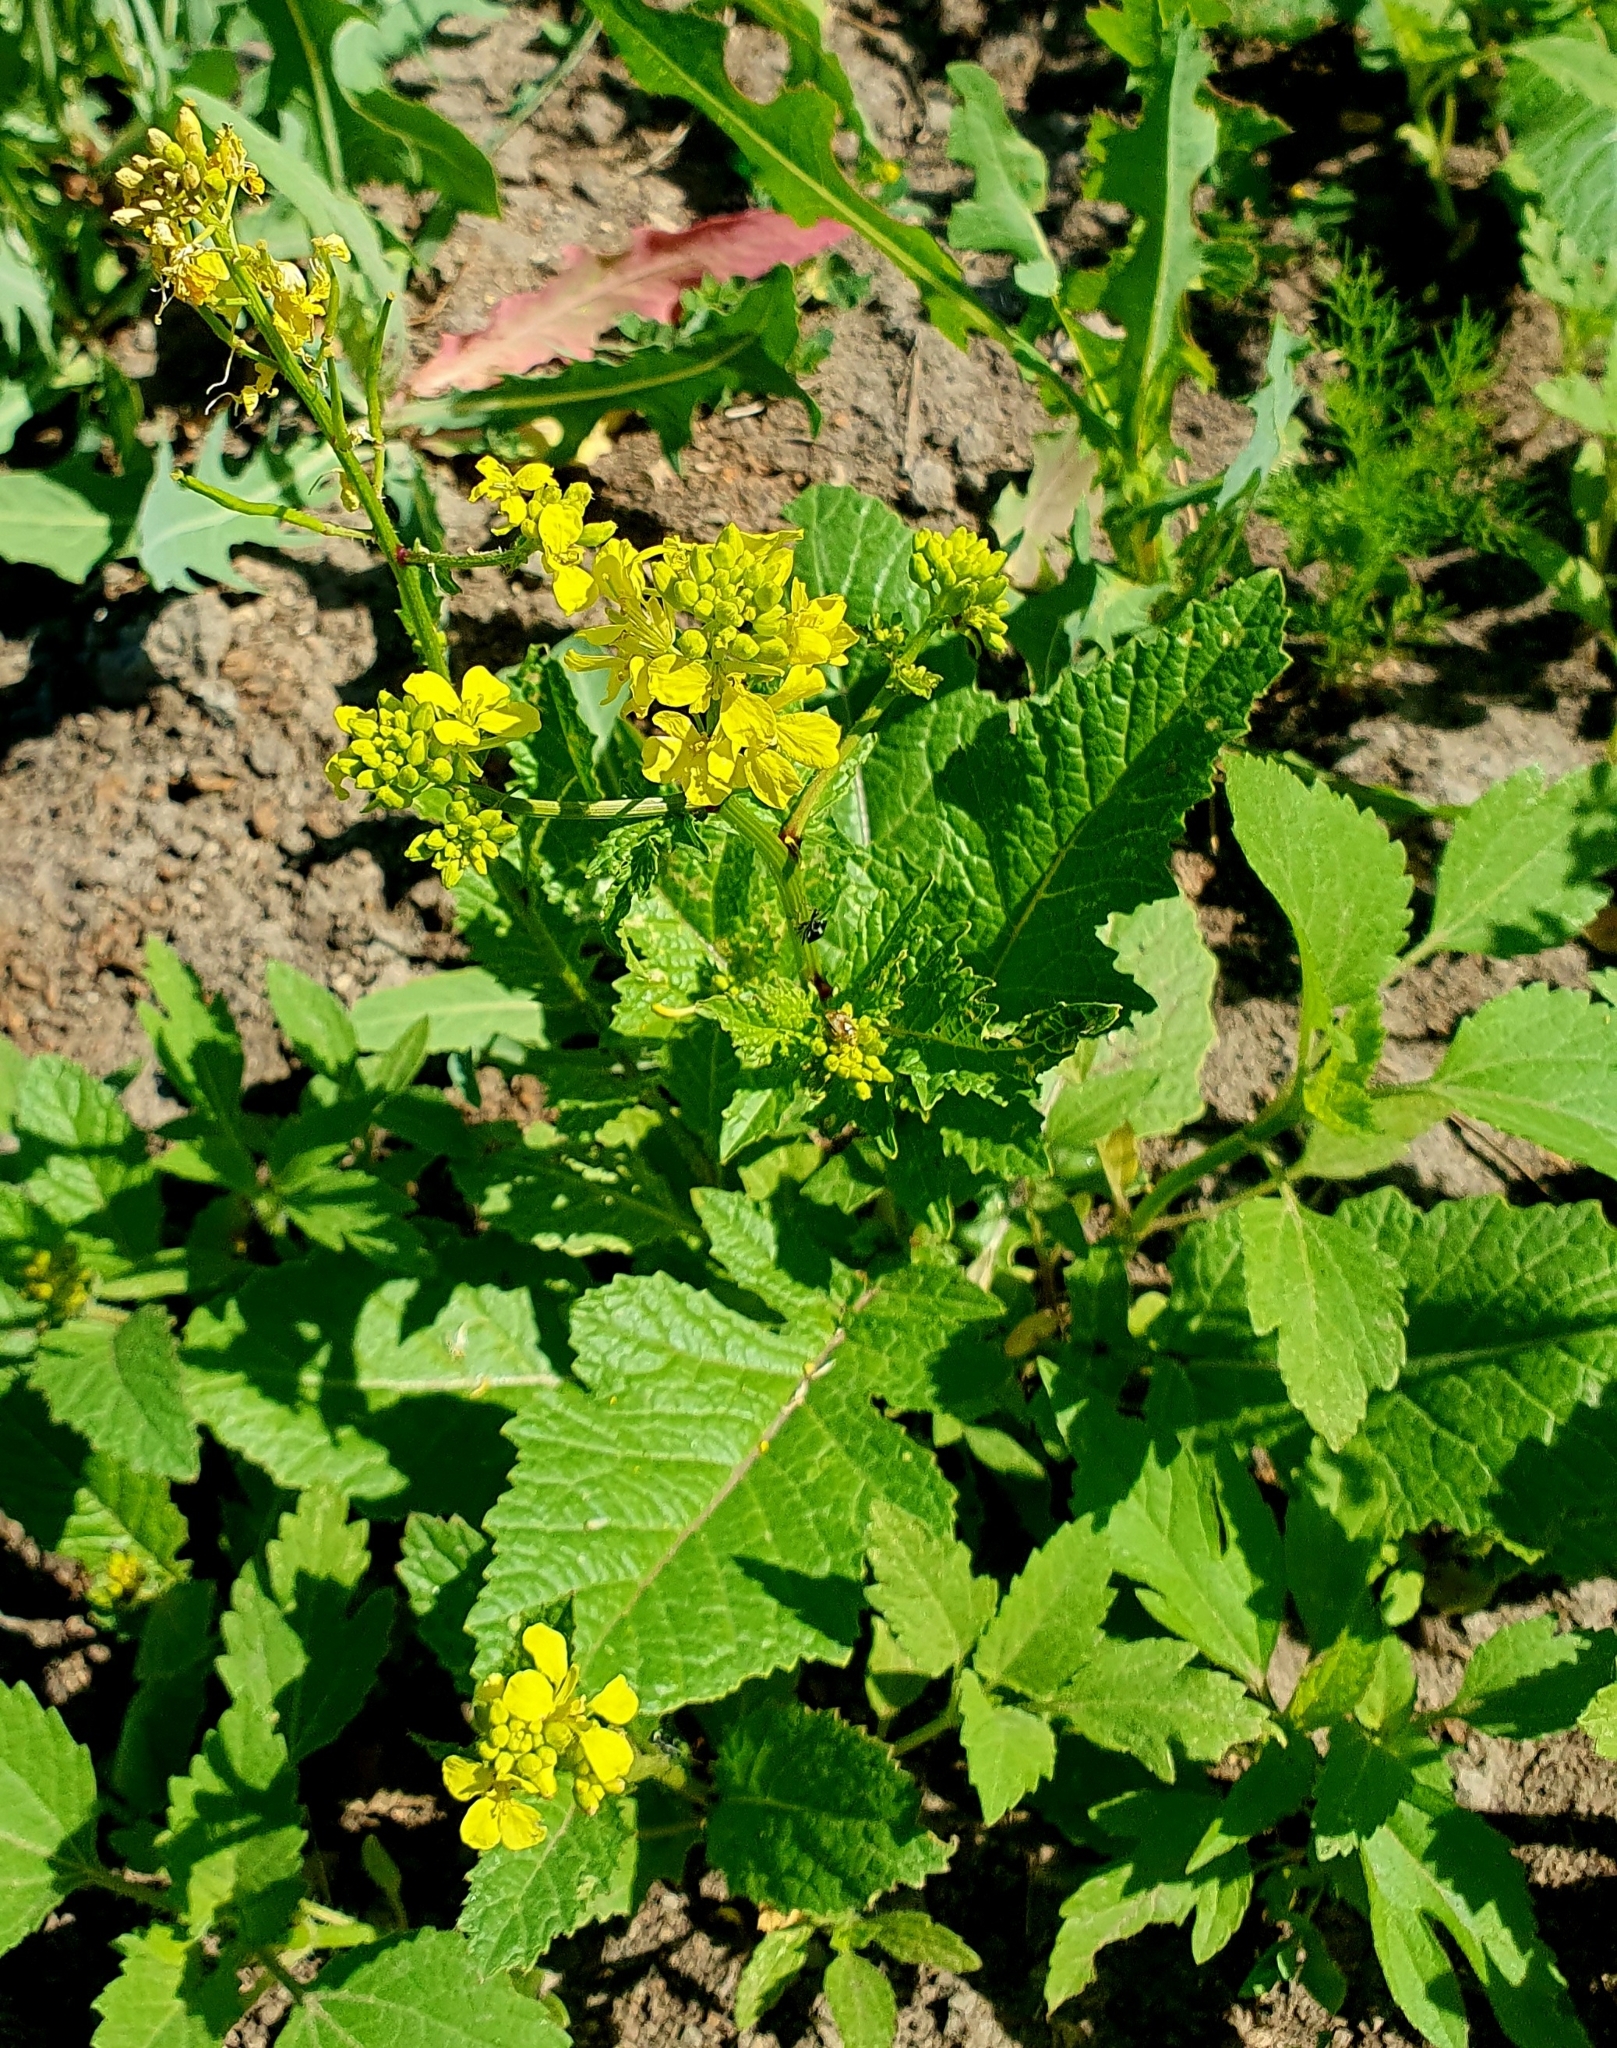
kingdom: Plantae
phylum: Tracheophyta
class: Magnoliopsida
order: Brassicales
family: Brassicaceae
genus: Sinapis
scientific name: Sinapis arvensis
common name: Charlock
